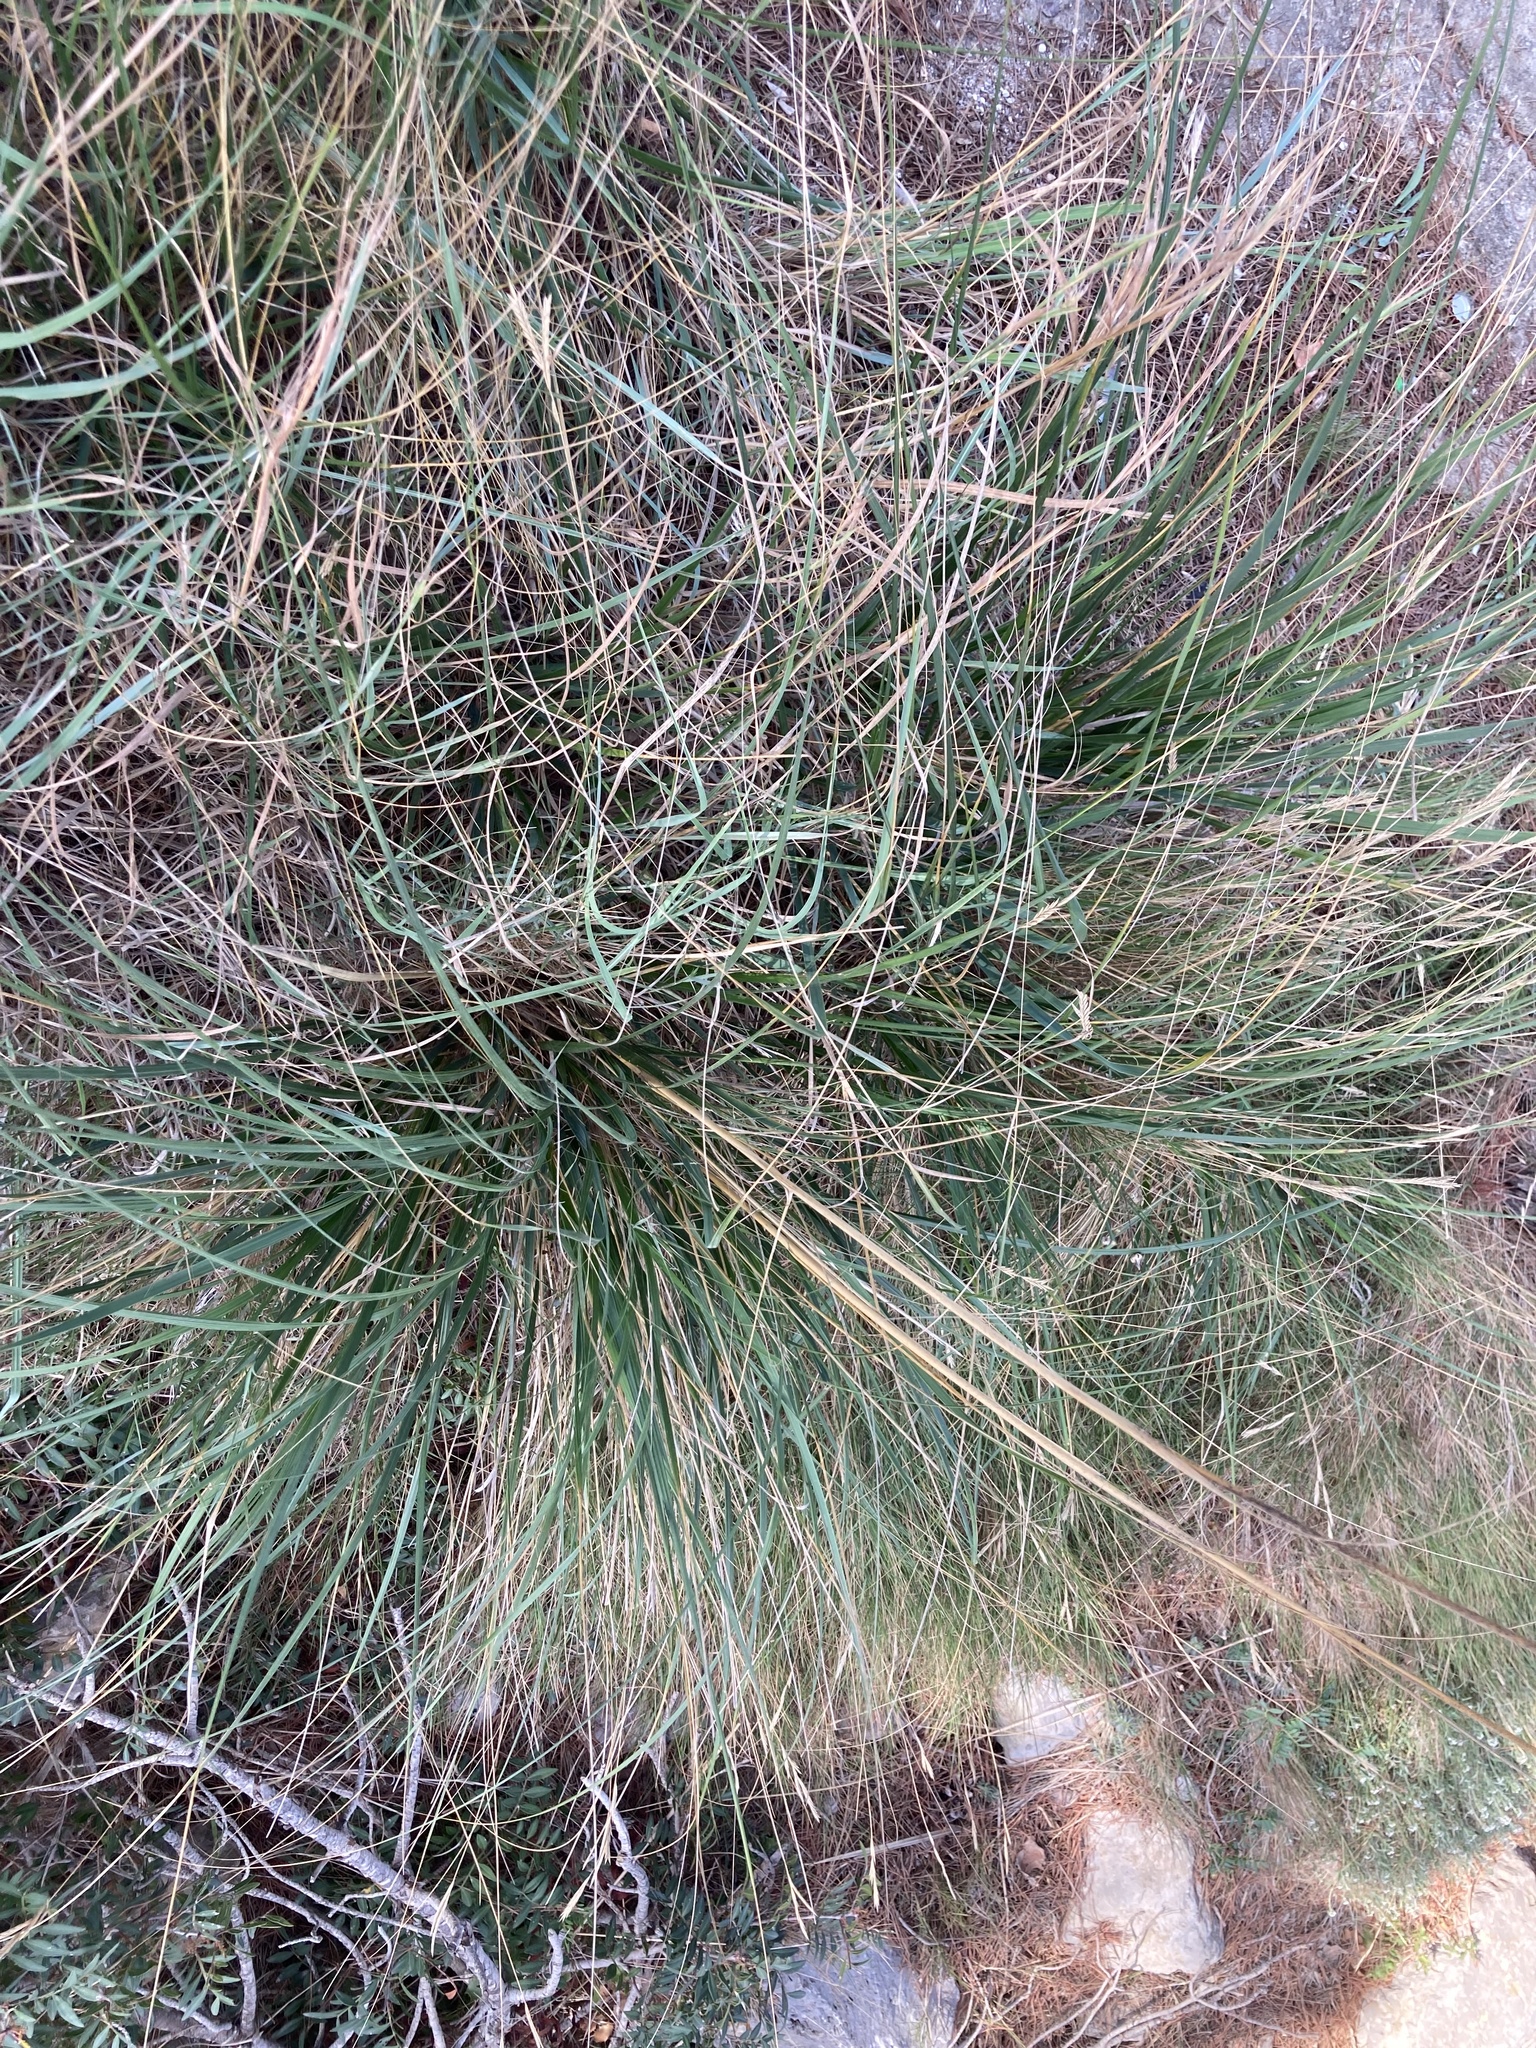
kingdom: Plantae
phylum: Tracheophyta
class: Liliopsida
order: Poales
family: Poaceae
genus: Ampelodesmos
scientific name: Ampelodesmos mauritanicus
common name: Mauritanian grass
